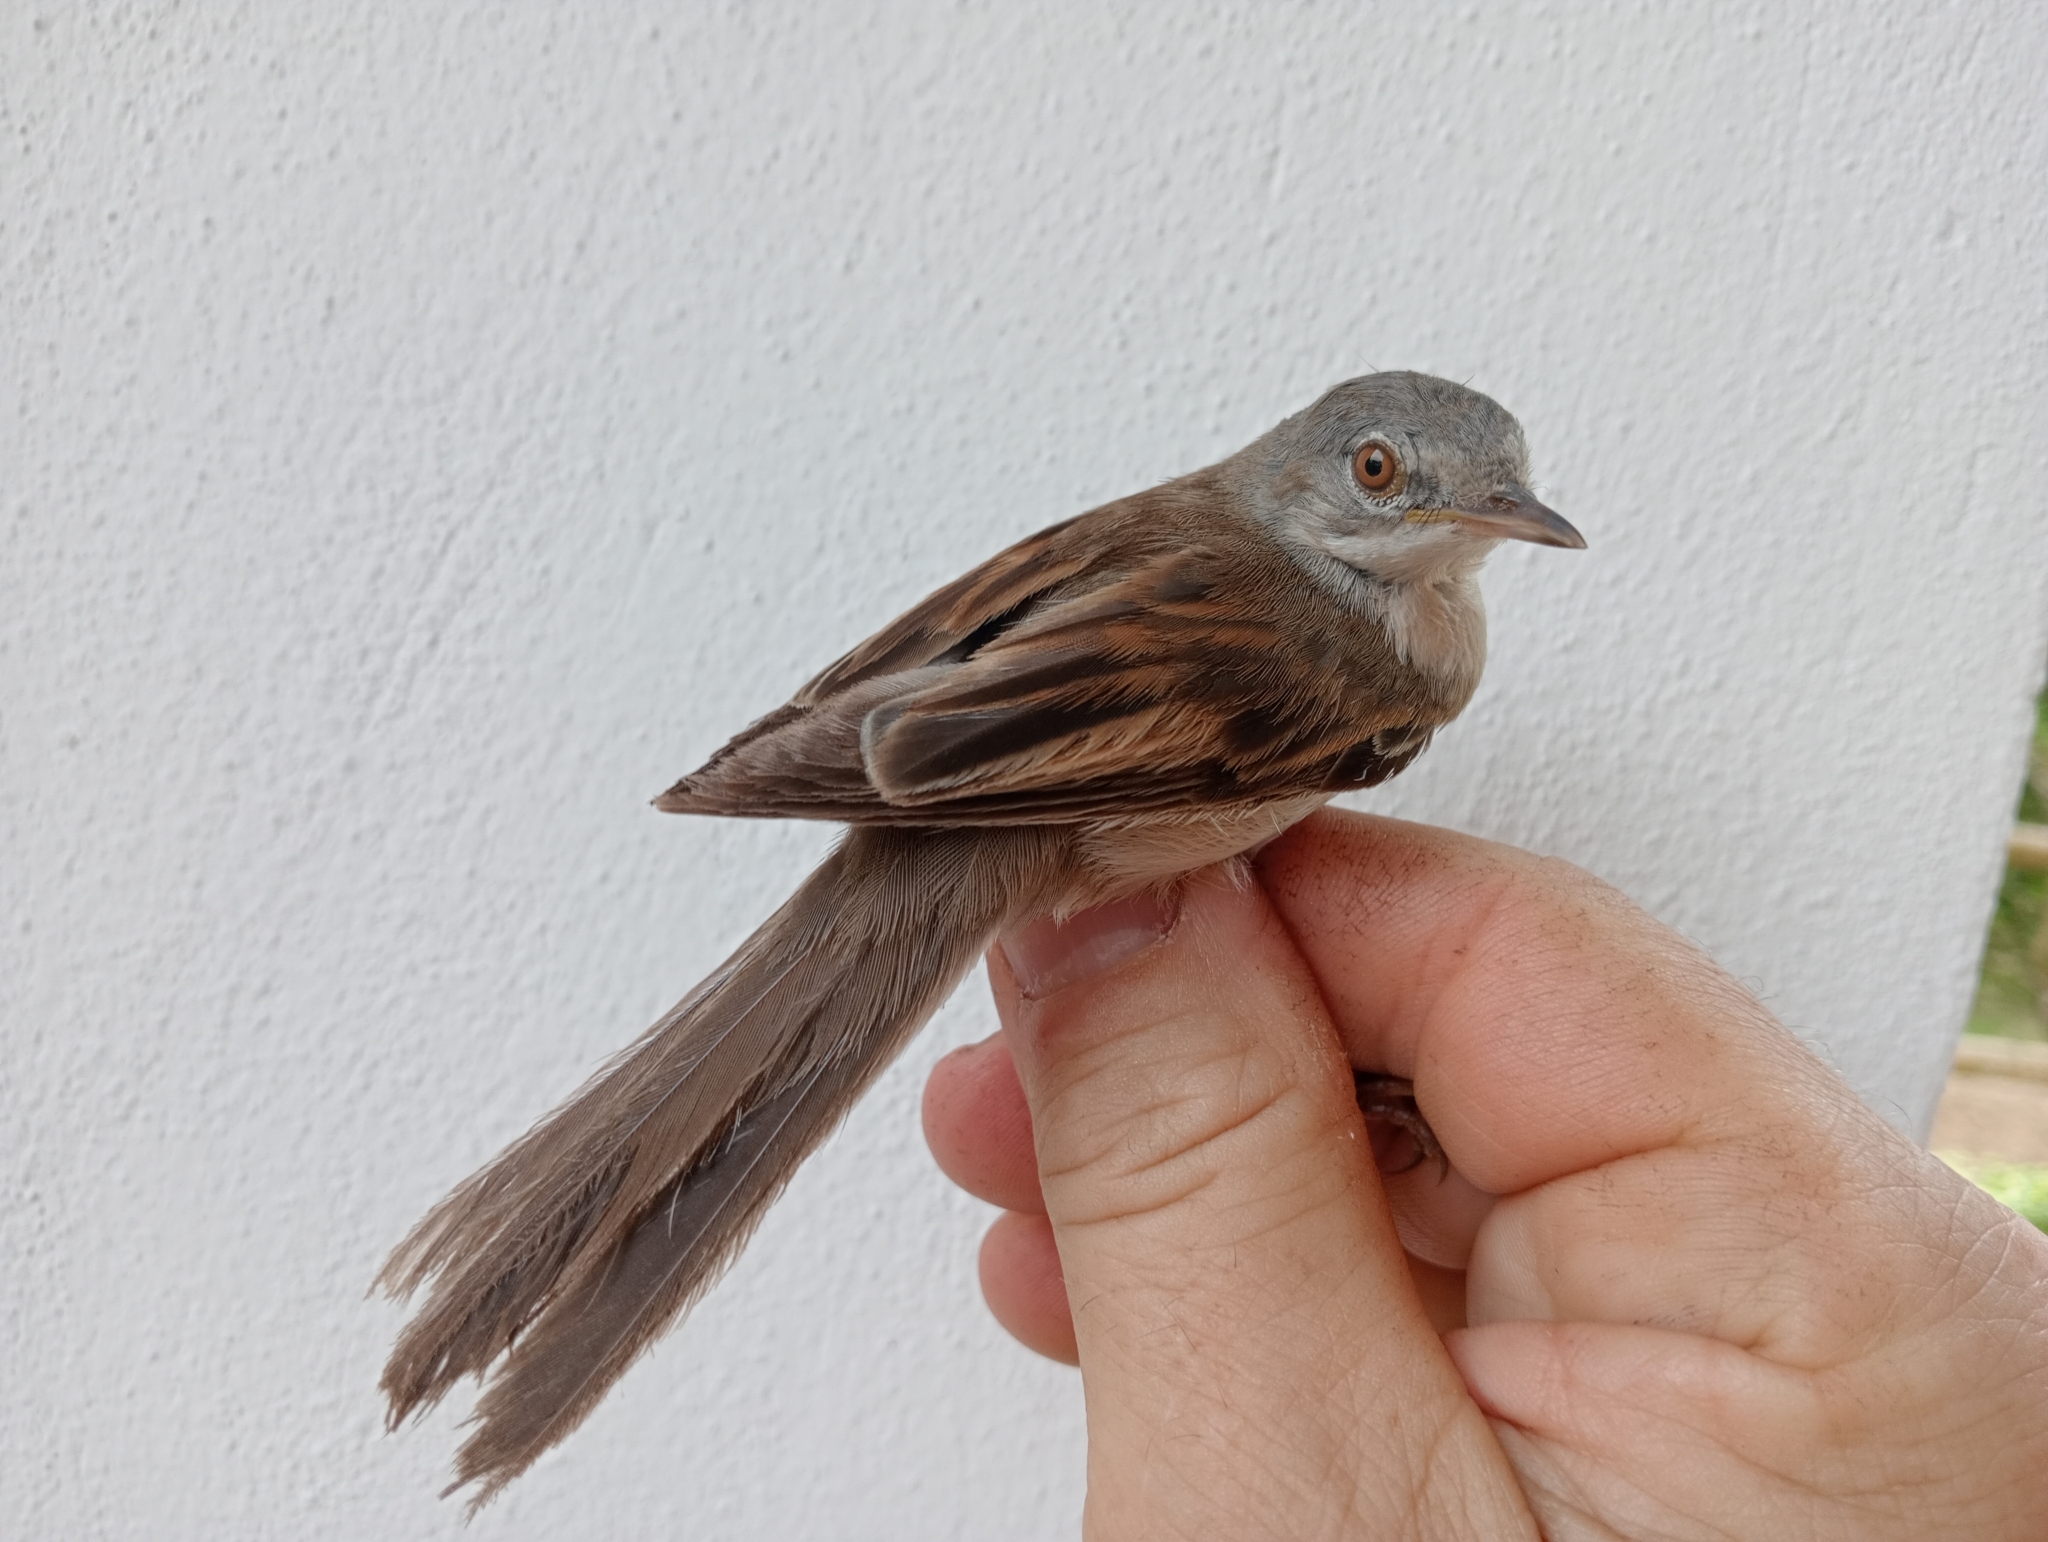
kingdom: Animalia
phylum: Chordata
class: Aves
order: Passeriformes
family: Sylviidae
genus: Sylvia
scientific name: Sylvia communis
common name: Common whitethroat
